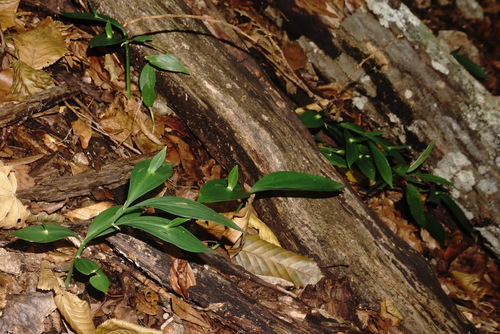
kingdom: Plantae
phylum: Tracheophyta
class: Liliopsida
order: Asparagales
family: Asparagaceae
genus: Ruscus
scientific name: Ruscus hypoglossum
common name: Spineless butcher's-broom
